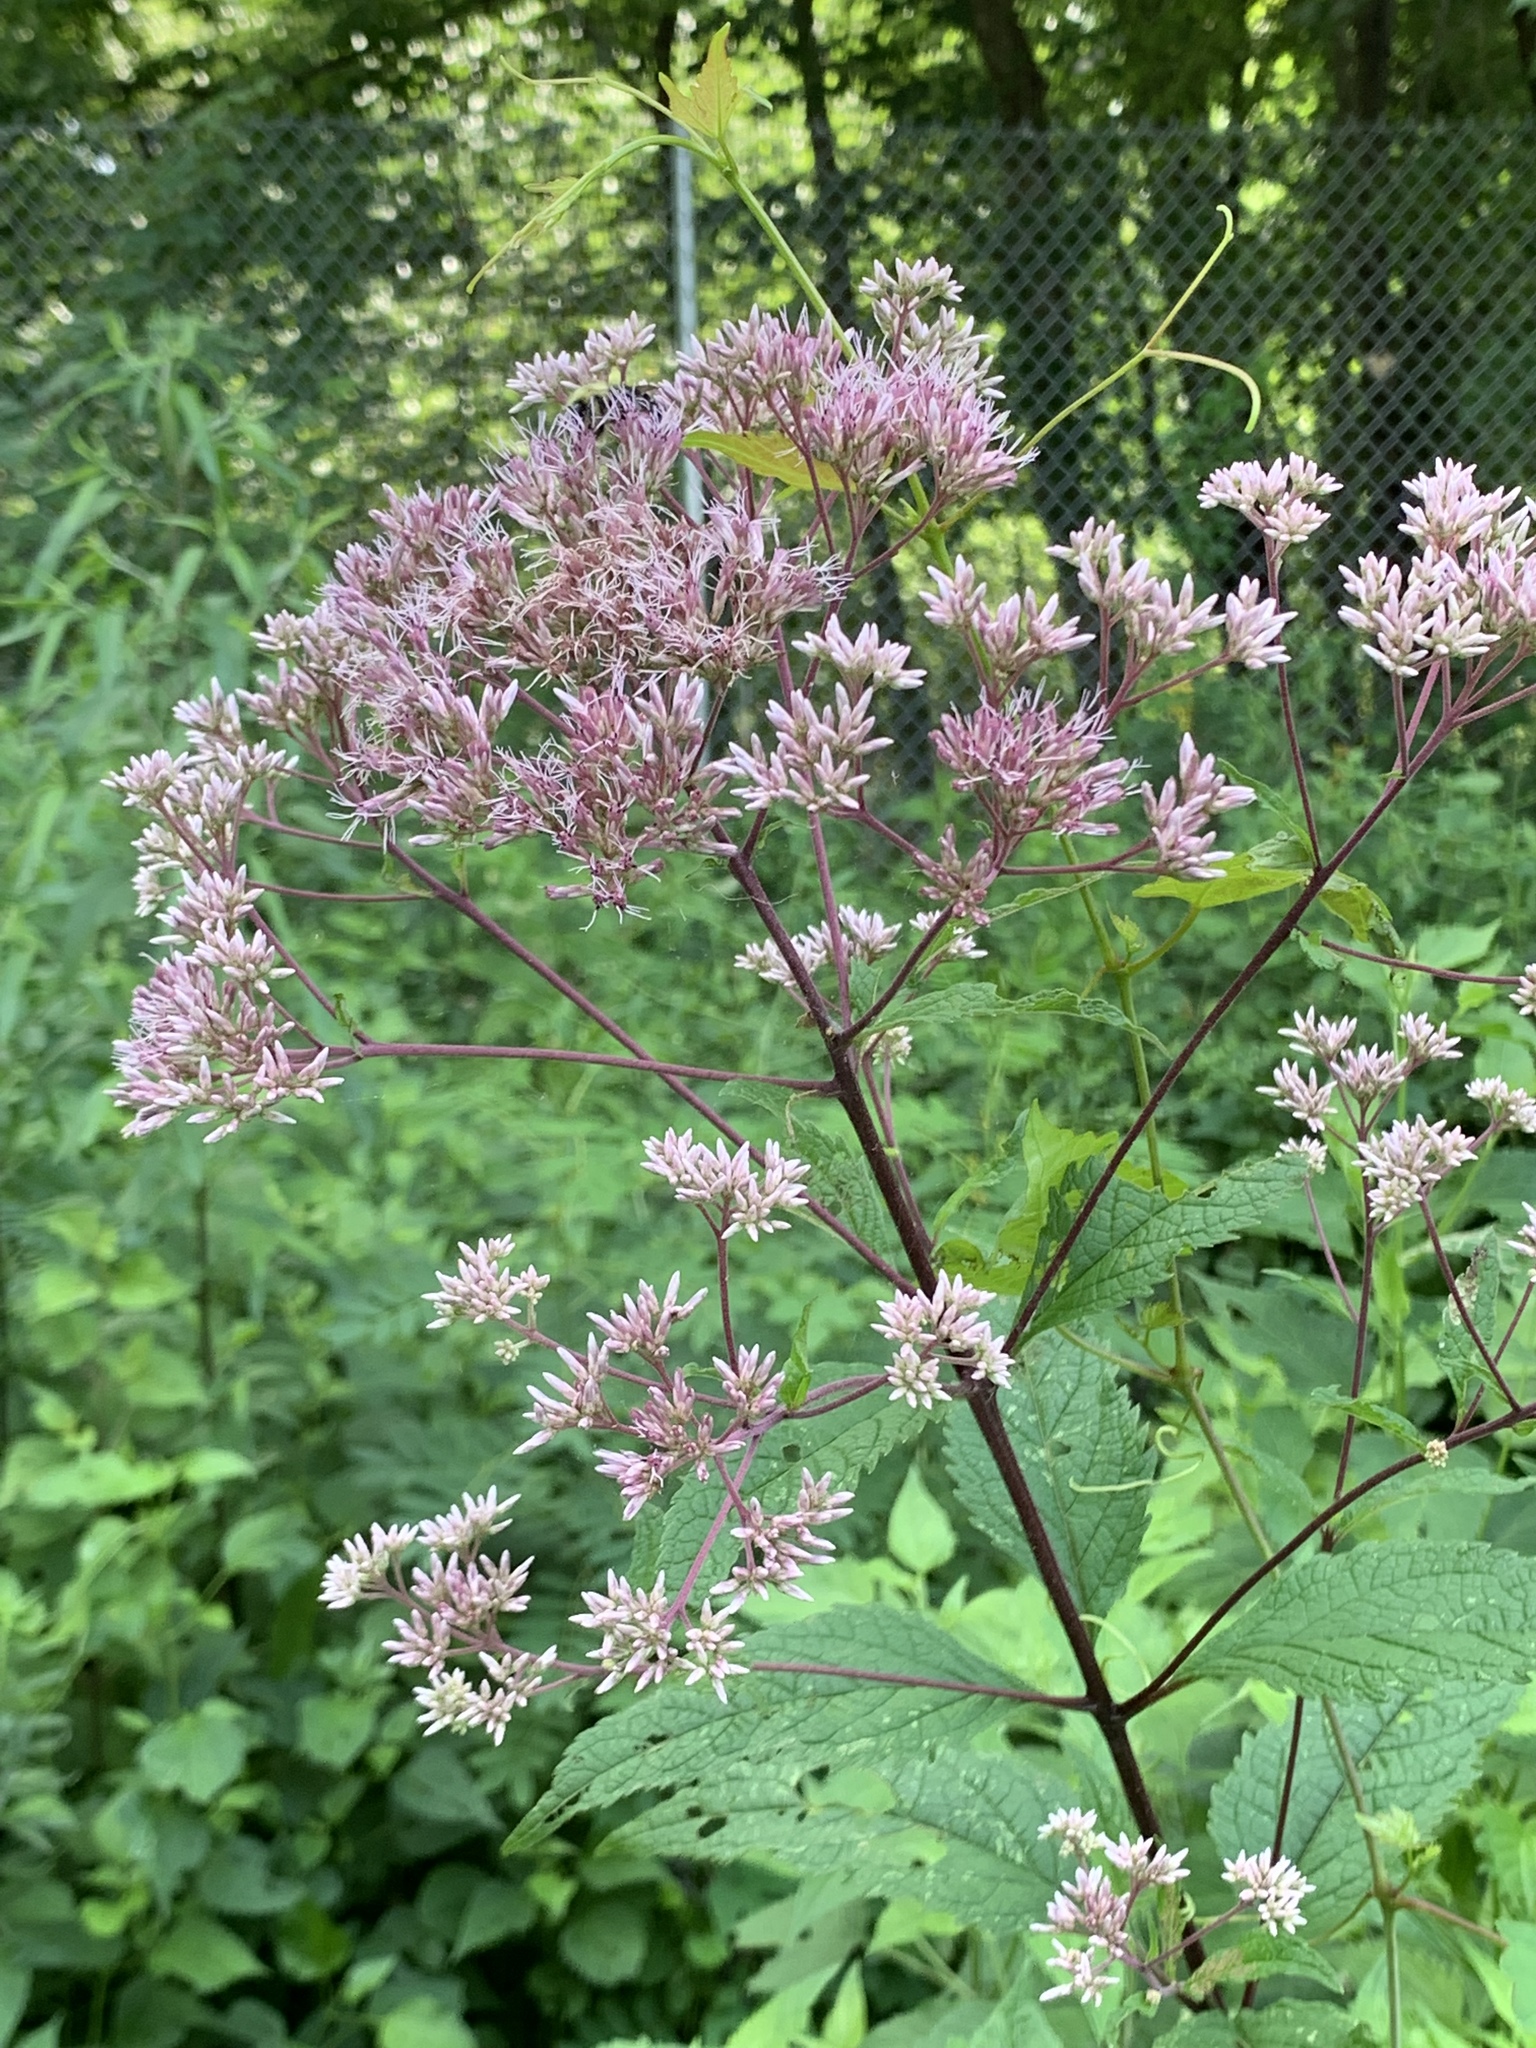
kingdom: Plantae
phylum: Tracheophyta
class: Magnoliopsida
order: Asterales
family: Asteraceae
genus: Eutrochium
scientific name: Eutrochium dubium
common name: Coastal plain joe pye weed
